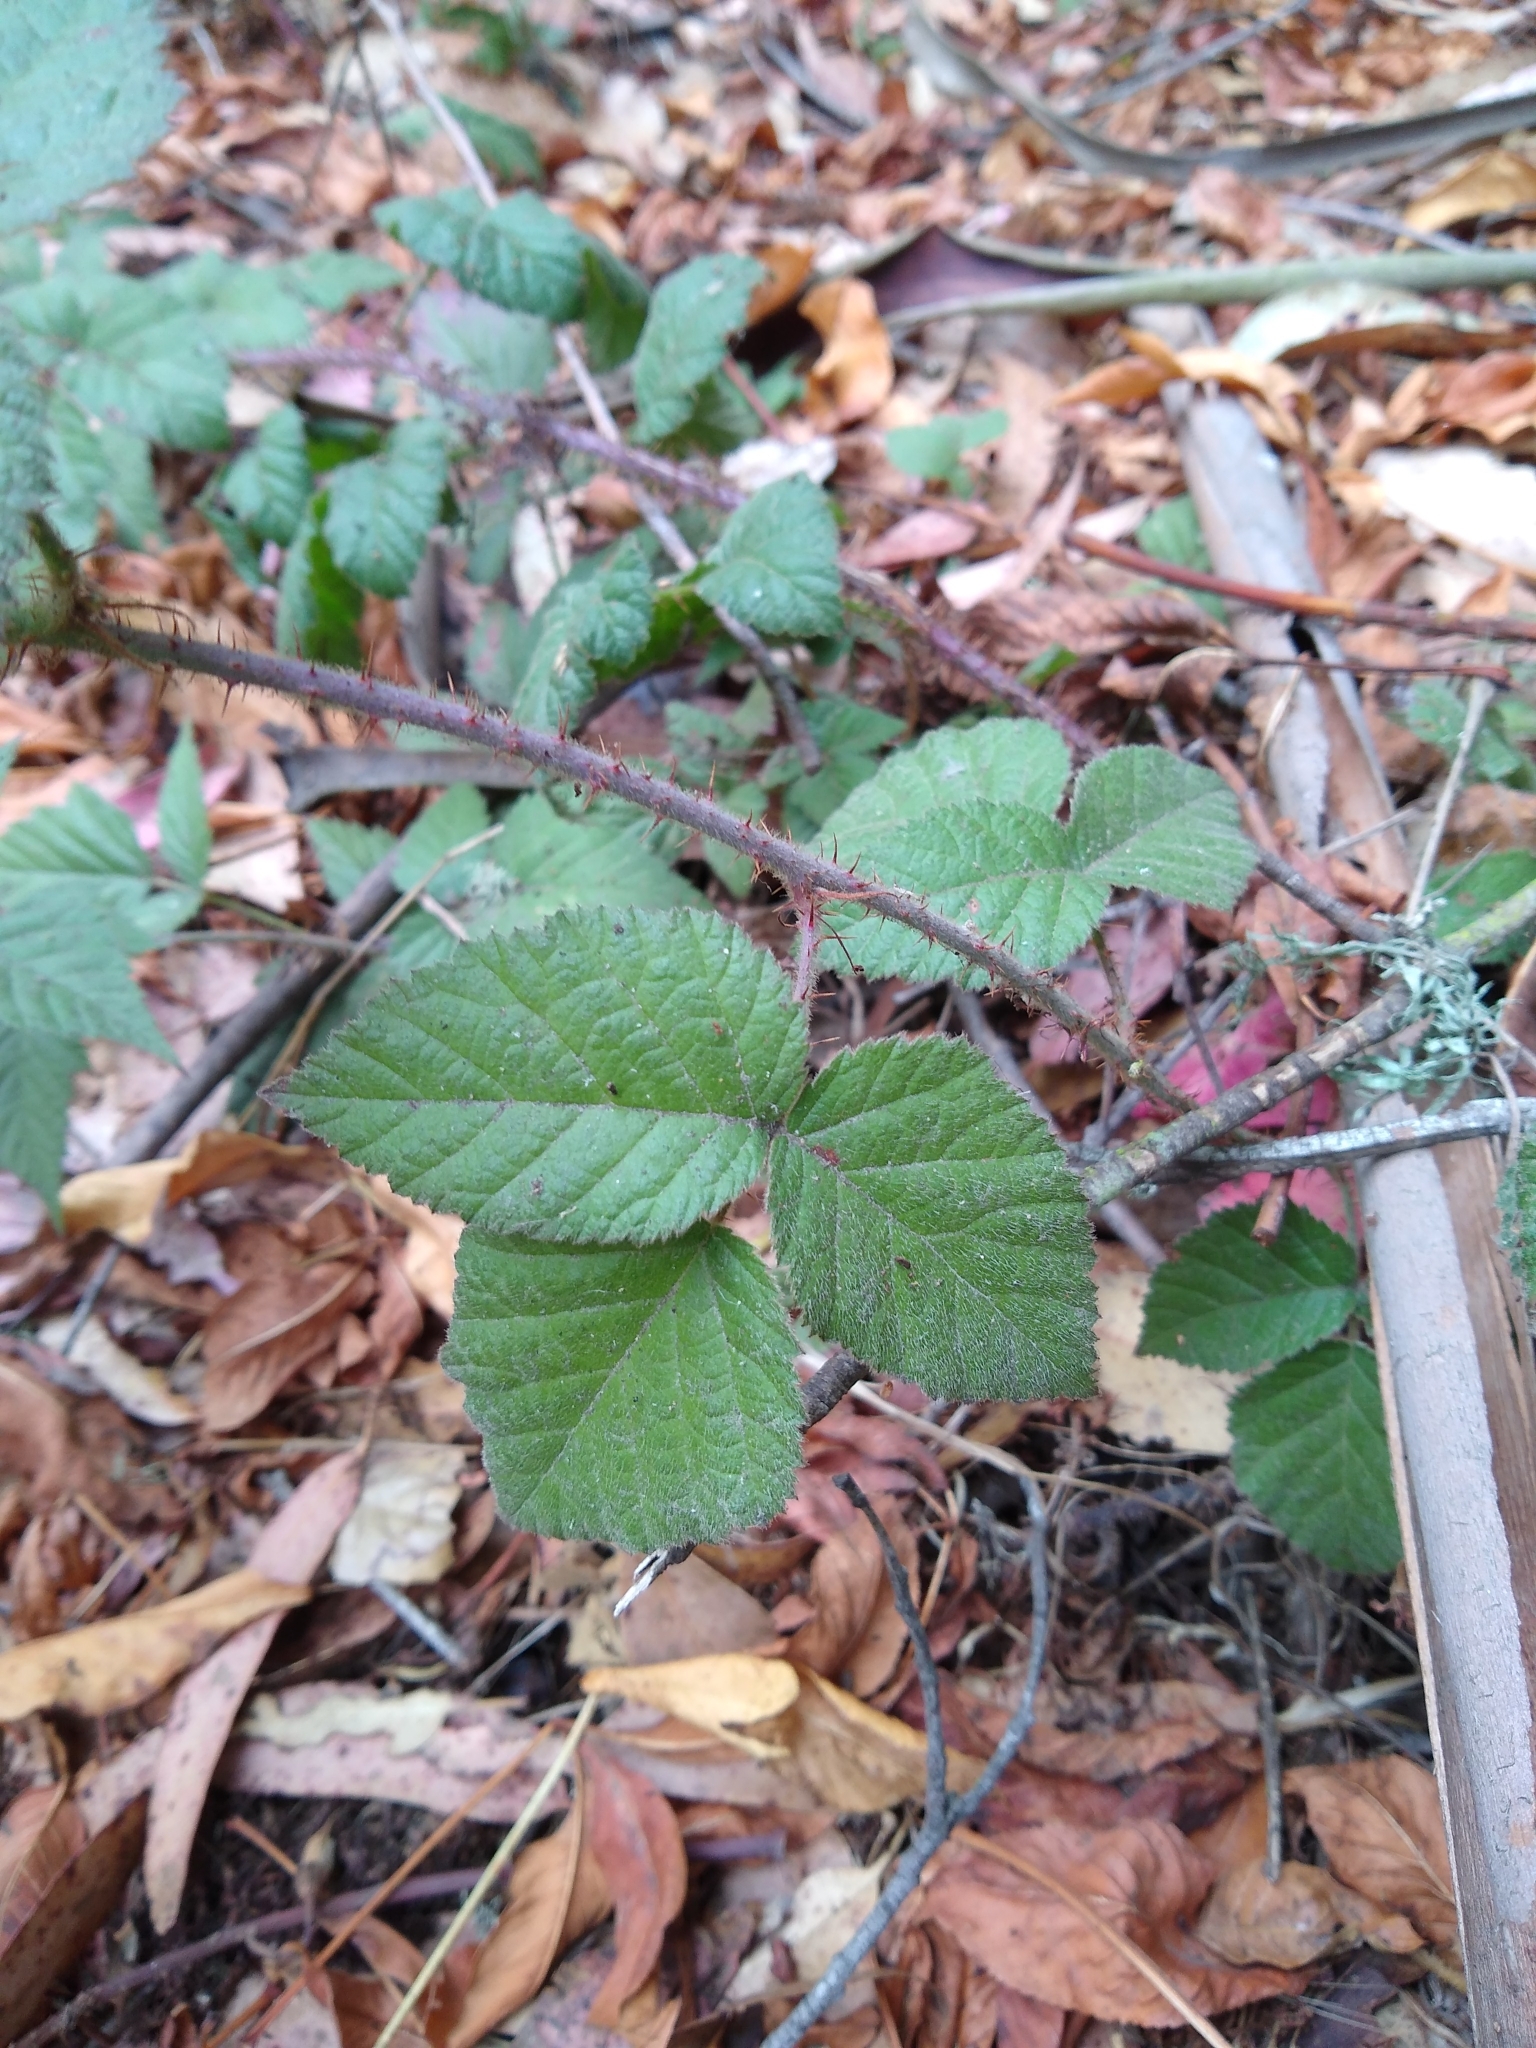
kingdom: Plantae
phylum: Tracheophyta
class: Magnoliopsida
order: Rosales
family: Rosaceae
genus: Rubus
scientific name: Rubus ursinus
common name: Pacific blackberry
